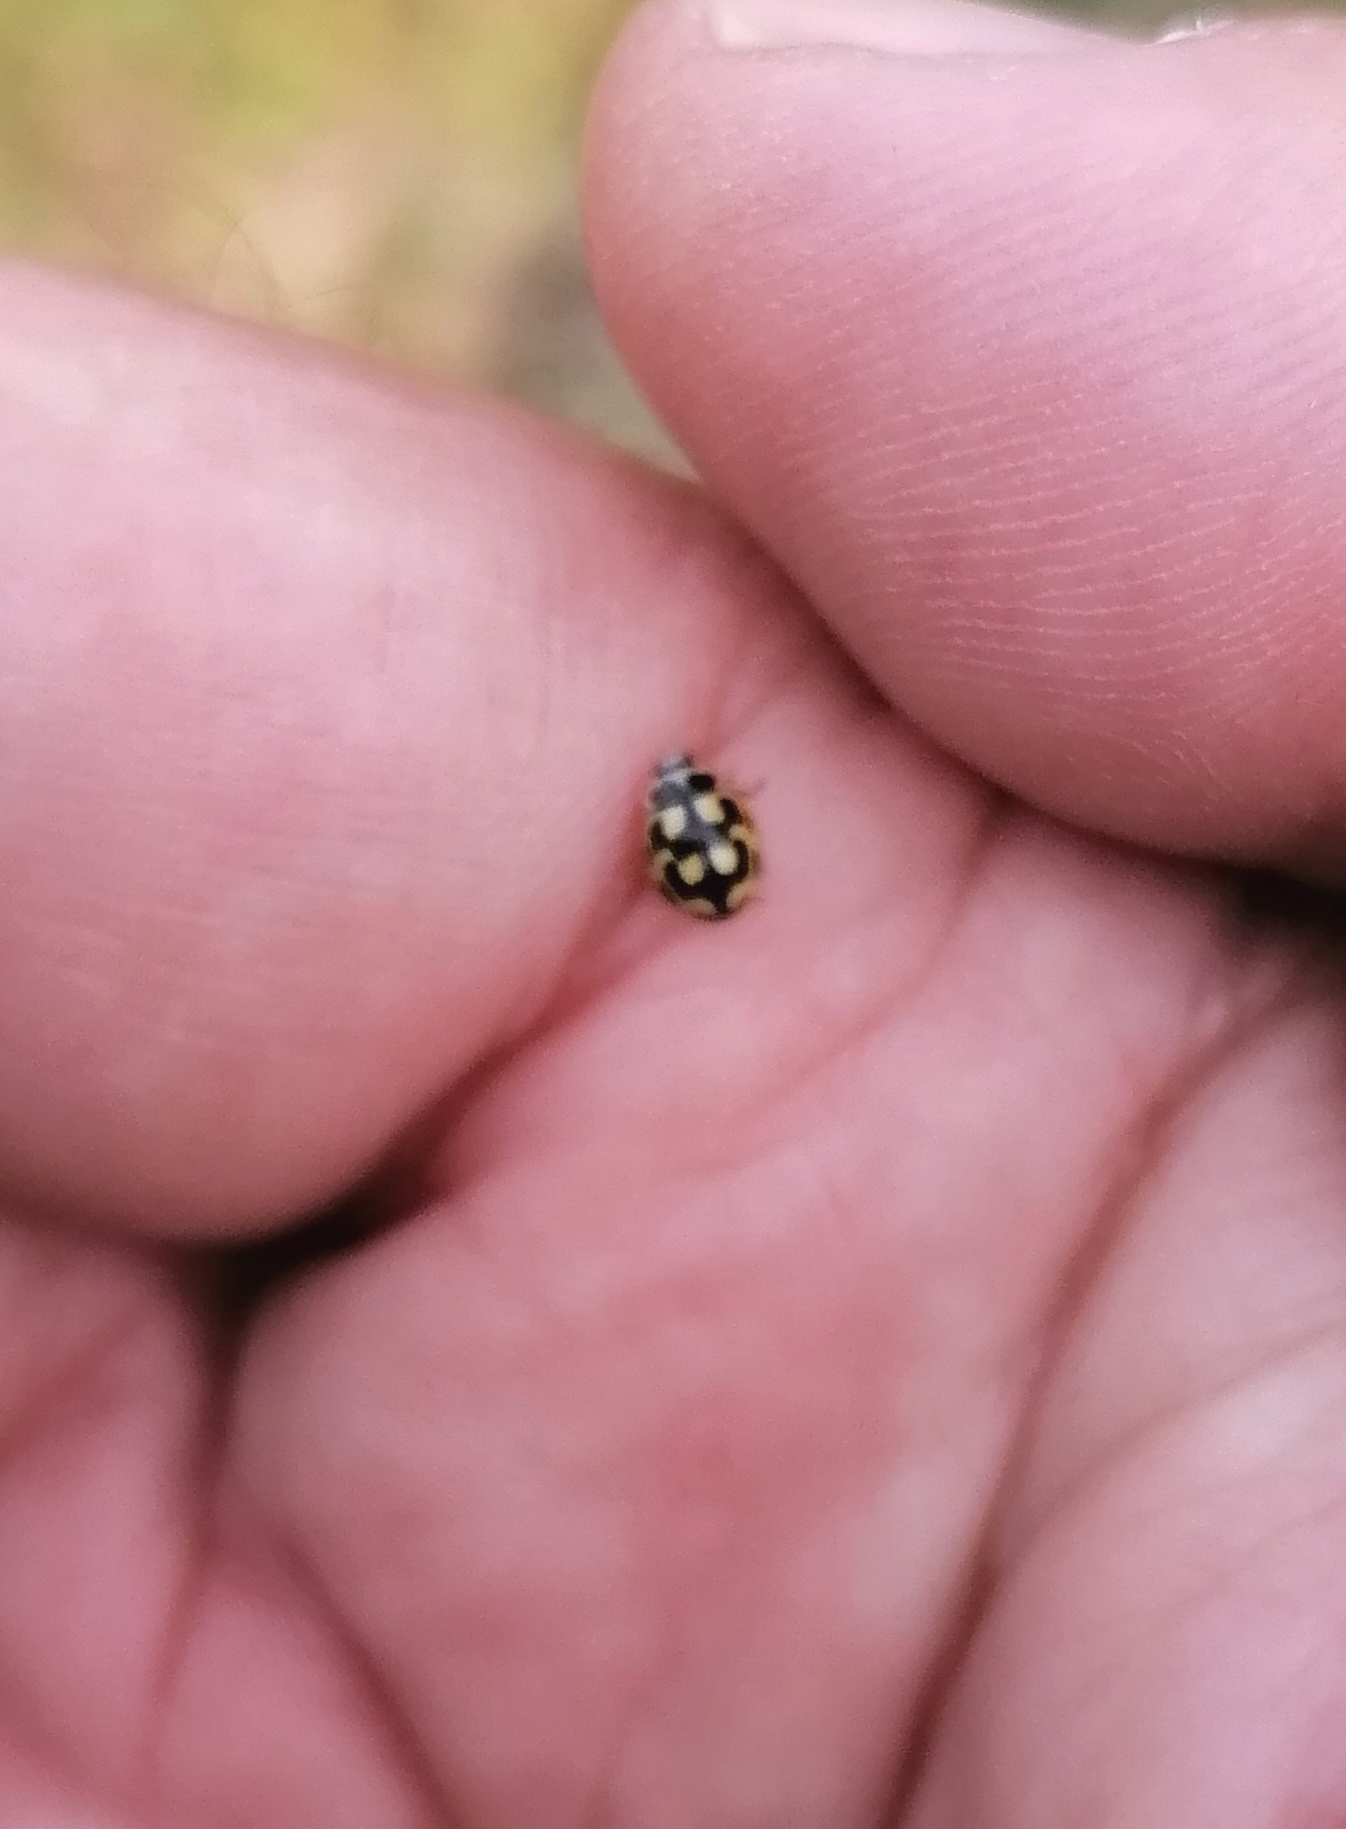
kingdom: Animalia
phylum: Arthropoda
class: Insecta
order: Coleoptera
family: Coccinellidae
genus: Propylaea
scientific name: Propylaea quatuordecimpunctata
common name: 14-spotted ladybird beetle
